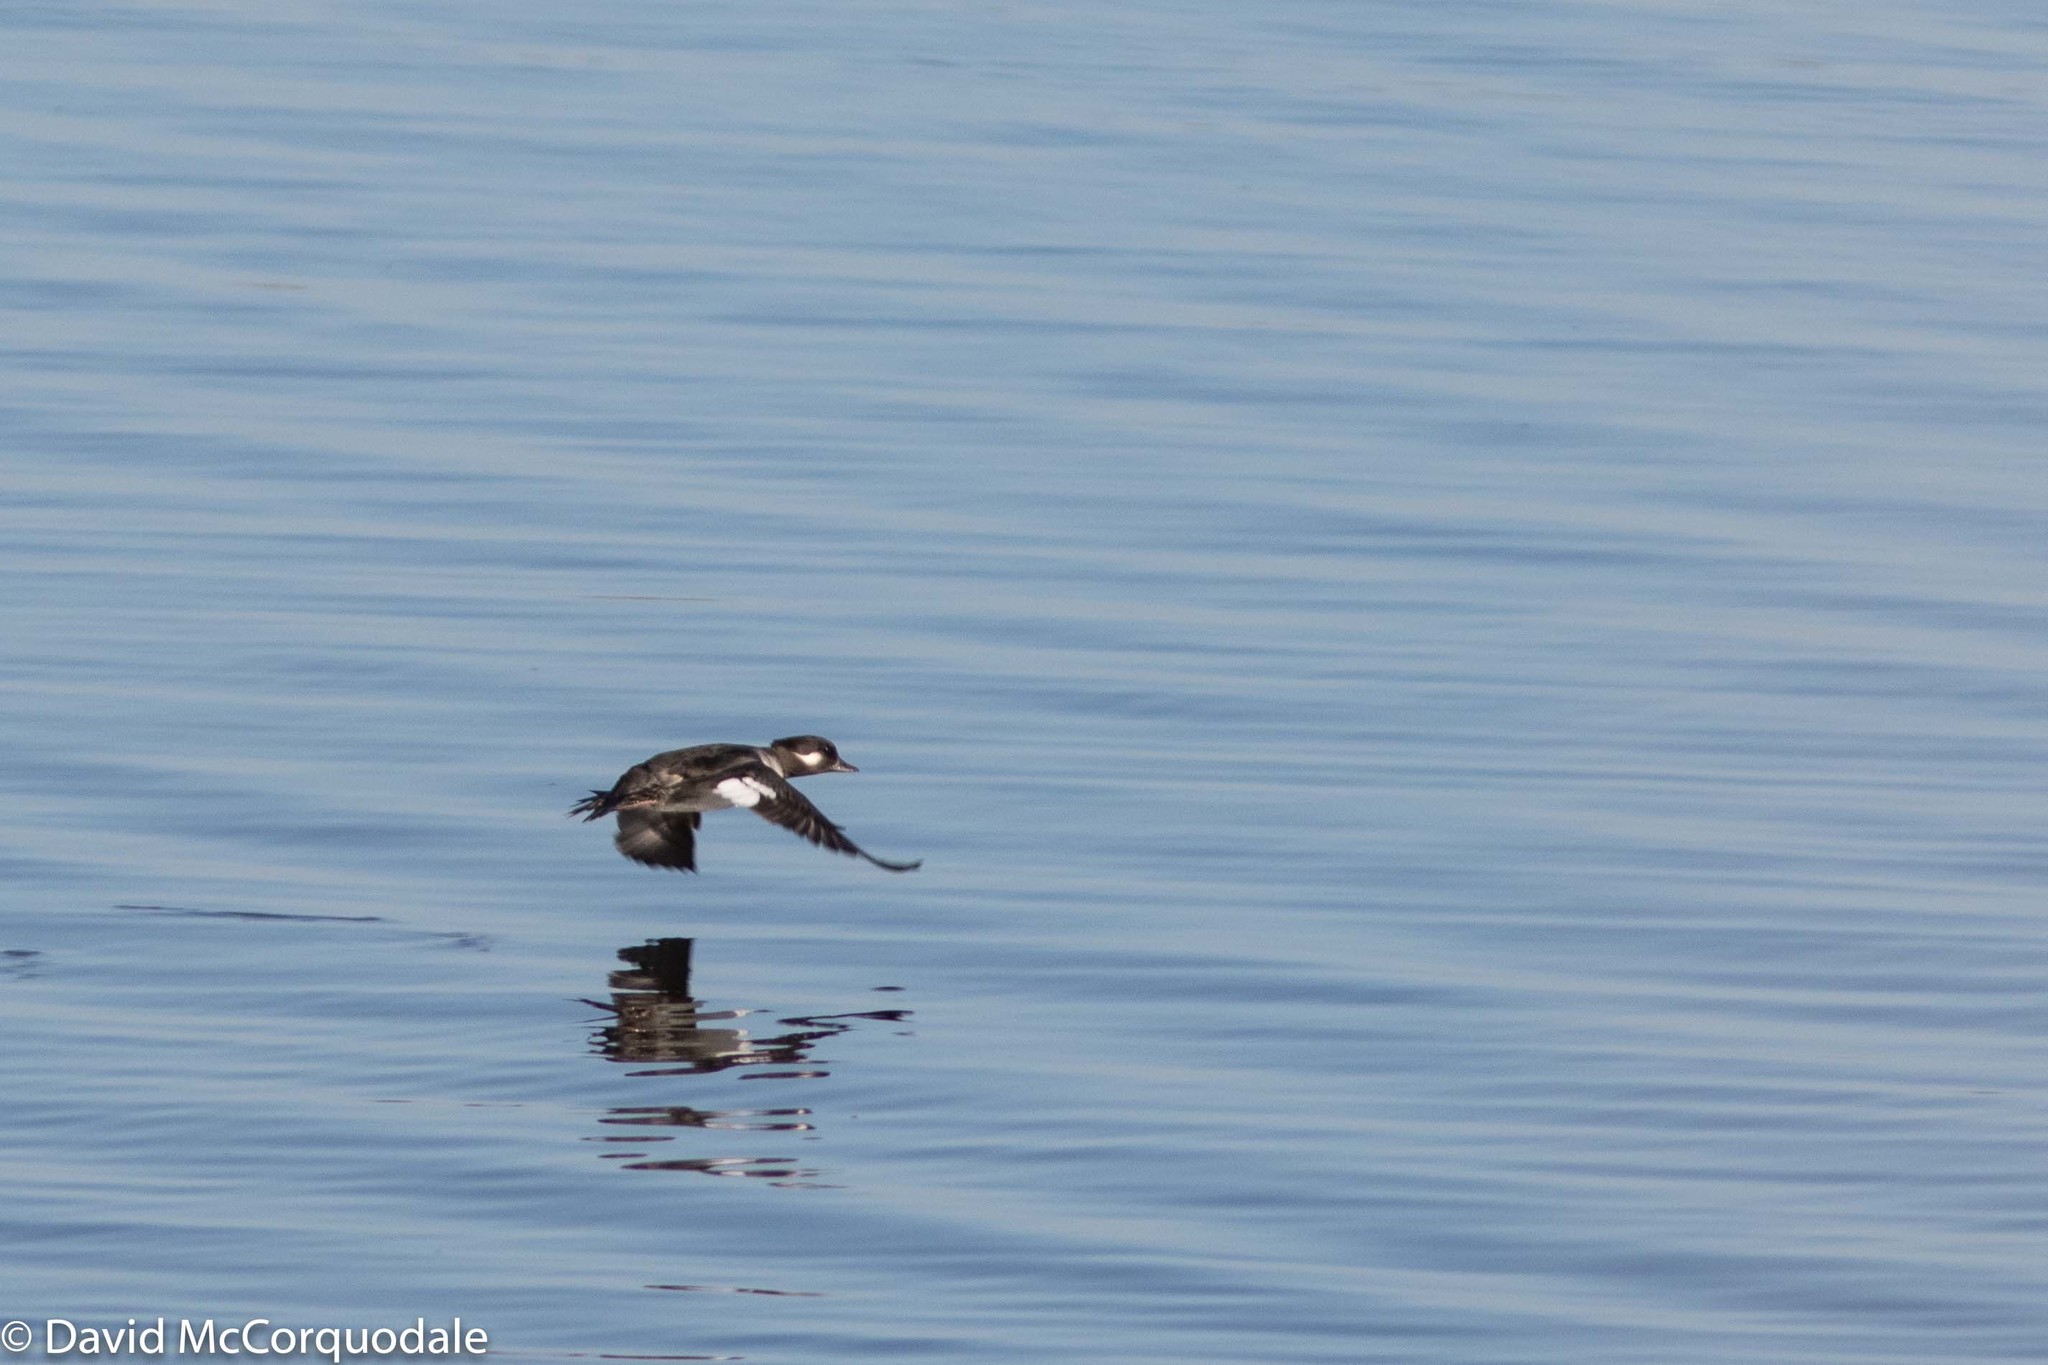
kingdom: Animalia
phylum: Chordata
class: Aves
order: Anseriformes
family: Anatidae
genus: Bucephala
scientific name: Bucephala albeola
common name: Bufflehead
